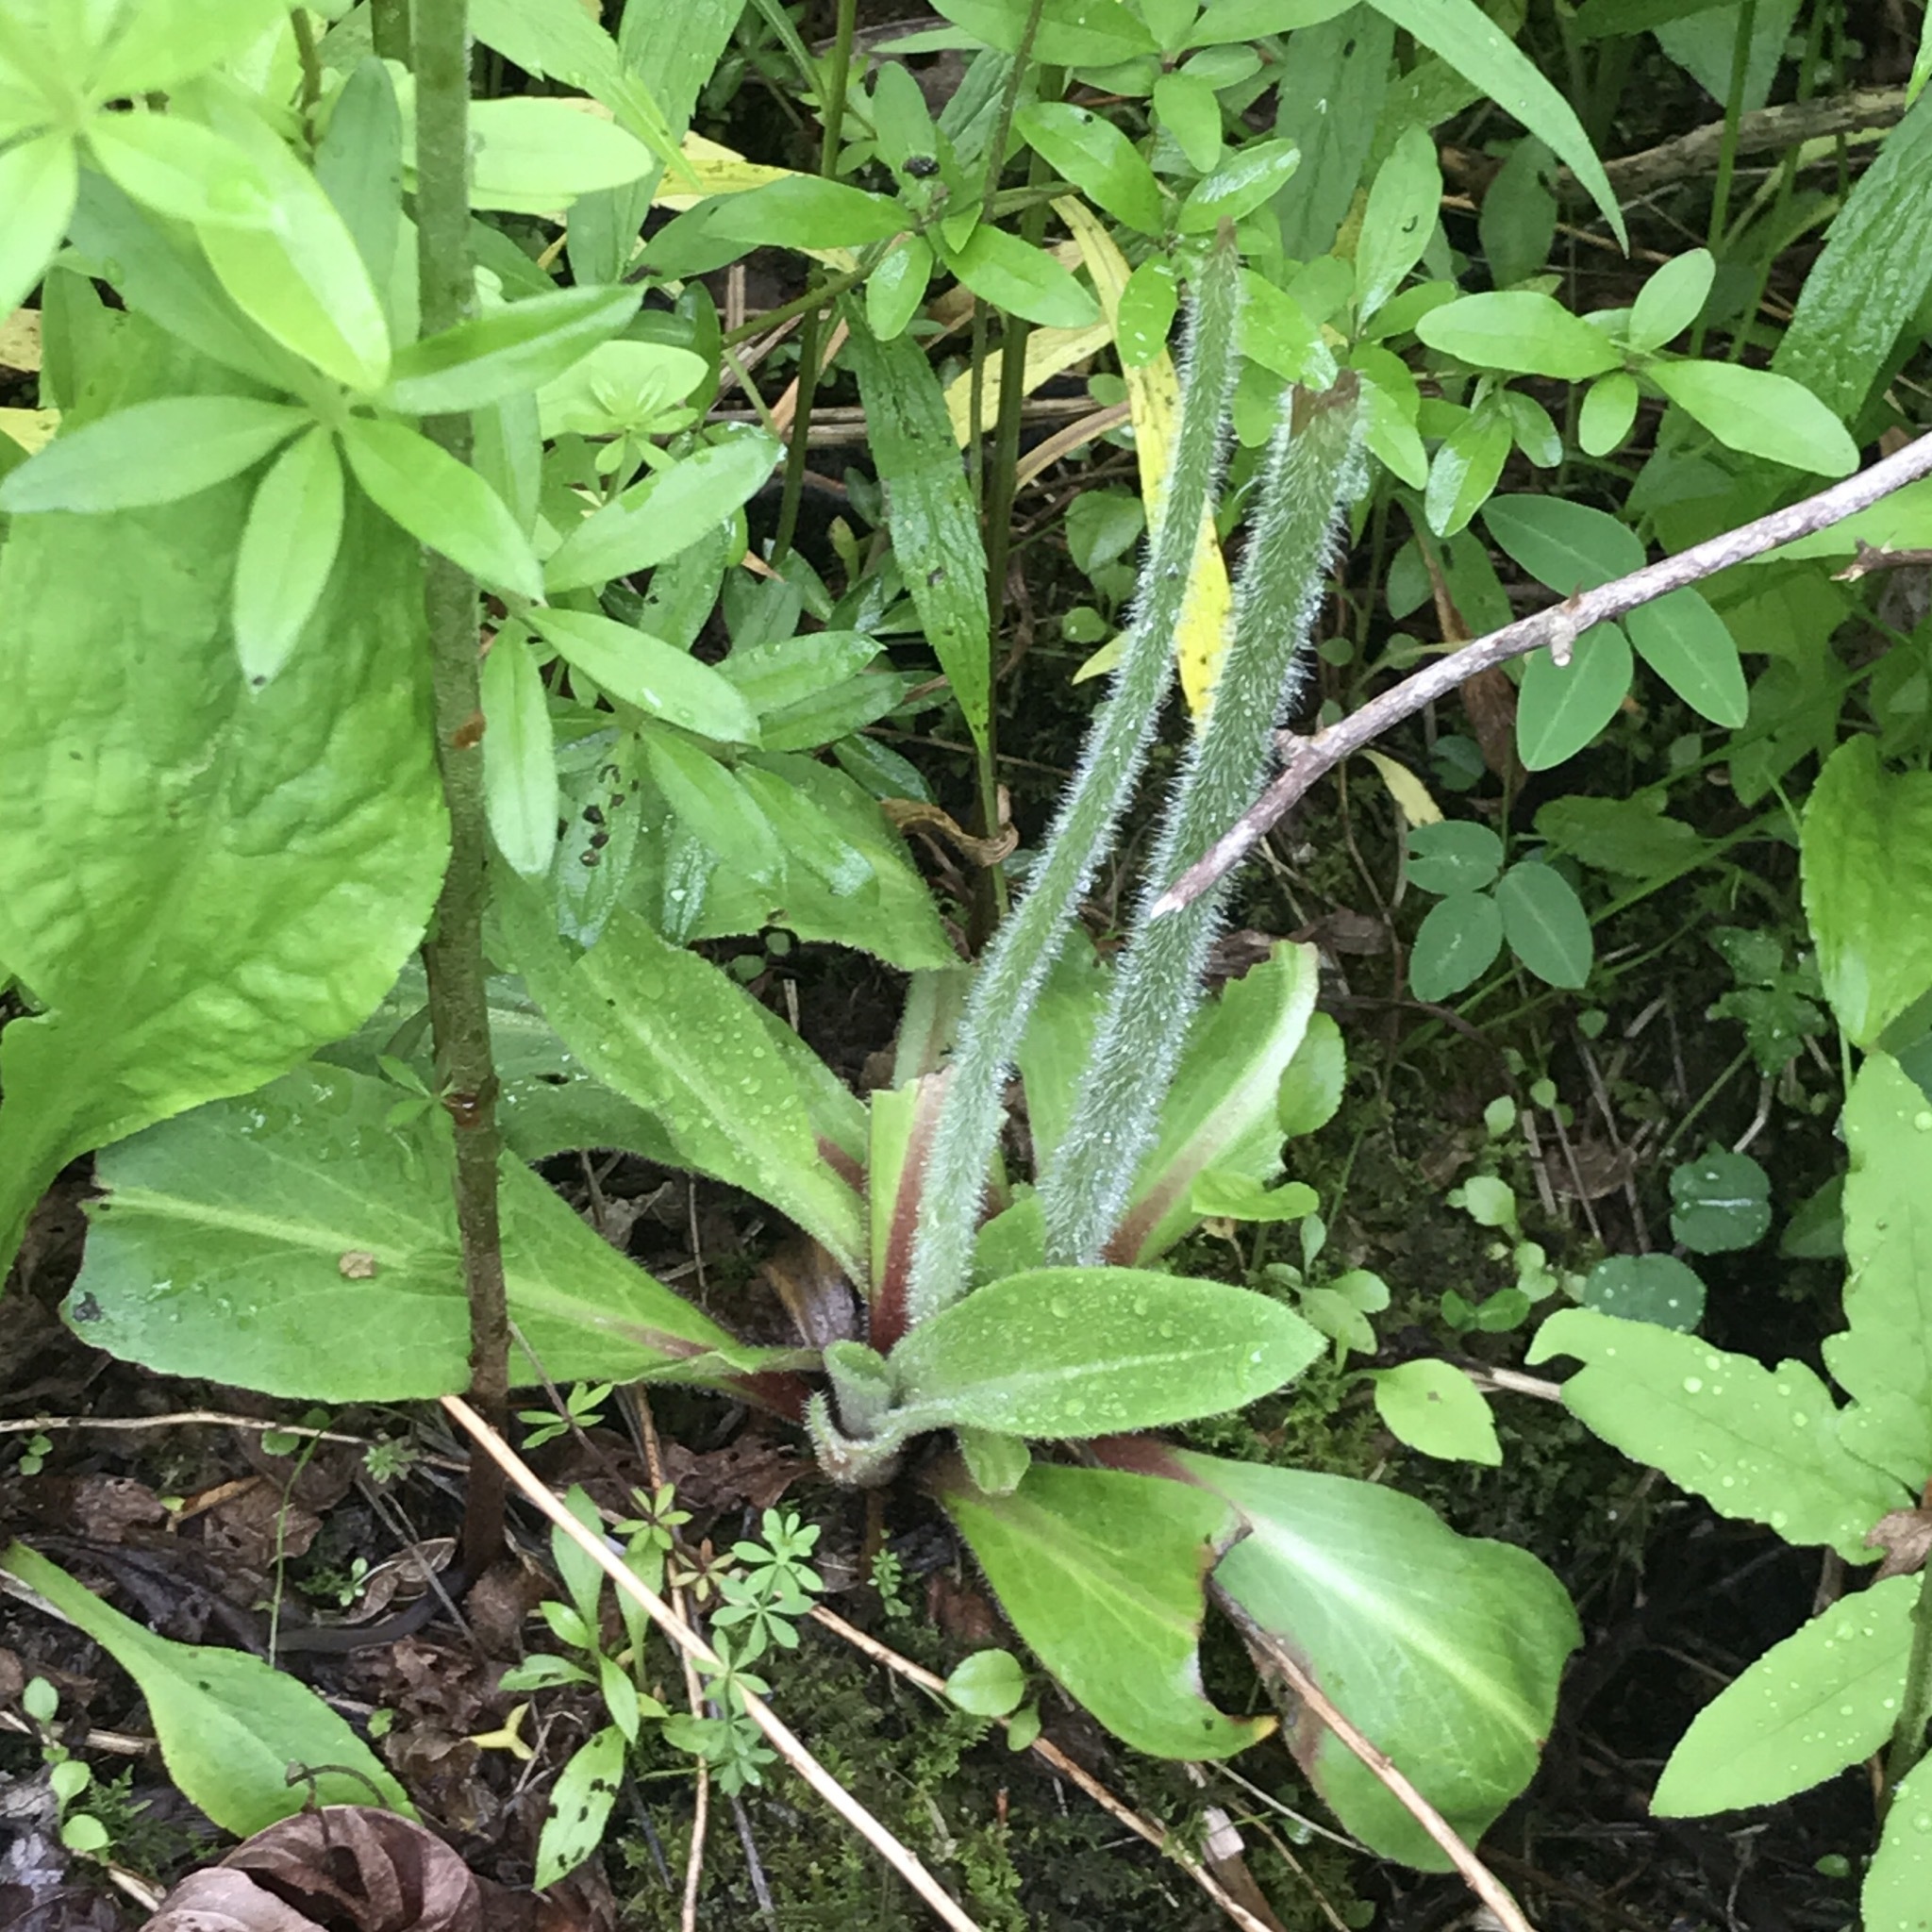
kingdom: Plantae
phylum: Tracheophyta
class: Magnoliopsida
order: Saxifragales
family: Saxifragaceae
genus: Micranthes
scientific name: Micranthes pensylvanica
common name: Marsh saxifrage
